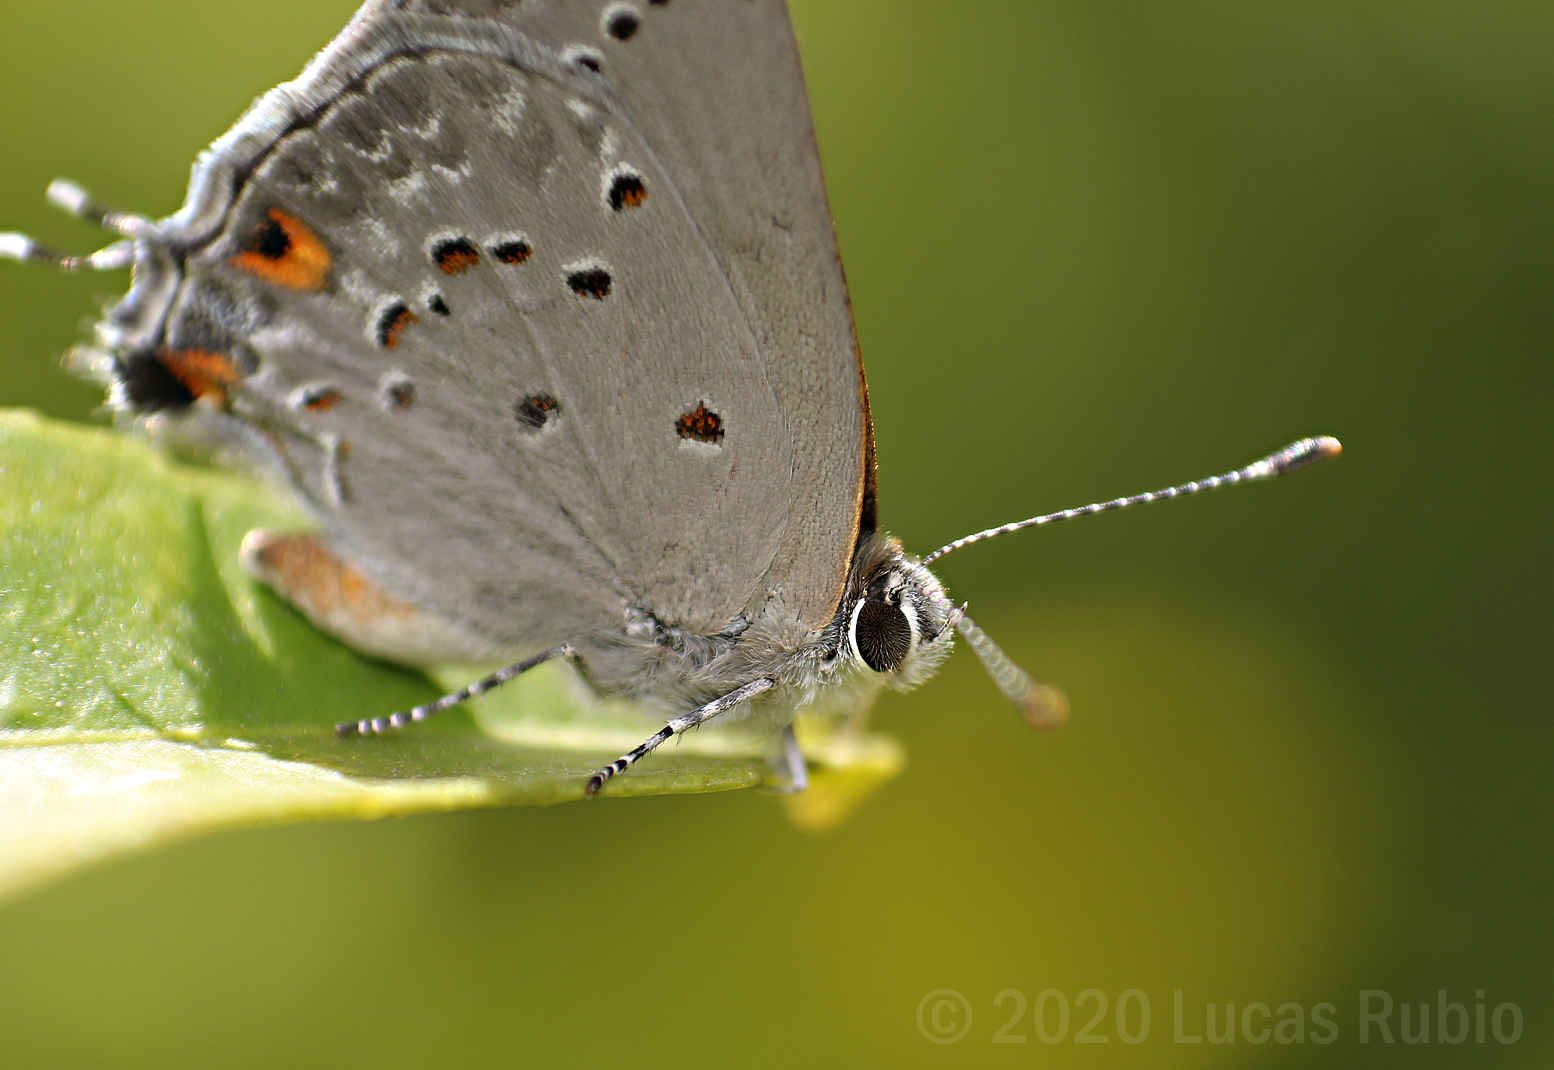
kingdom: Animalia
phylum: Arthropoda
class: Insecta
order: Lepidoptera
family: Lycaenidae
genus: Strymon
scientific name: Strymon eurytulus
